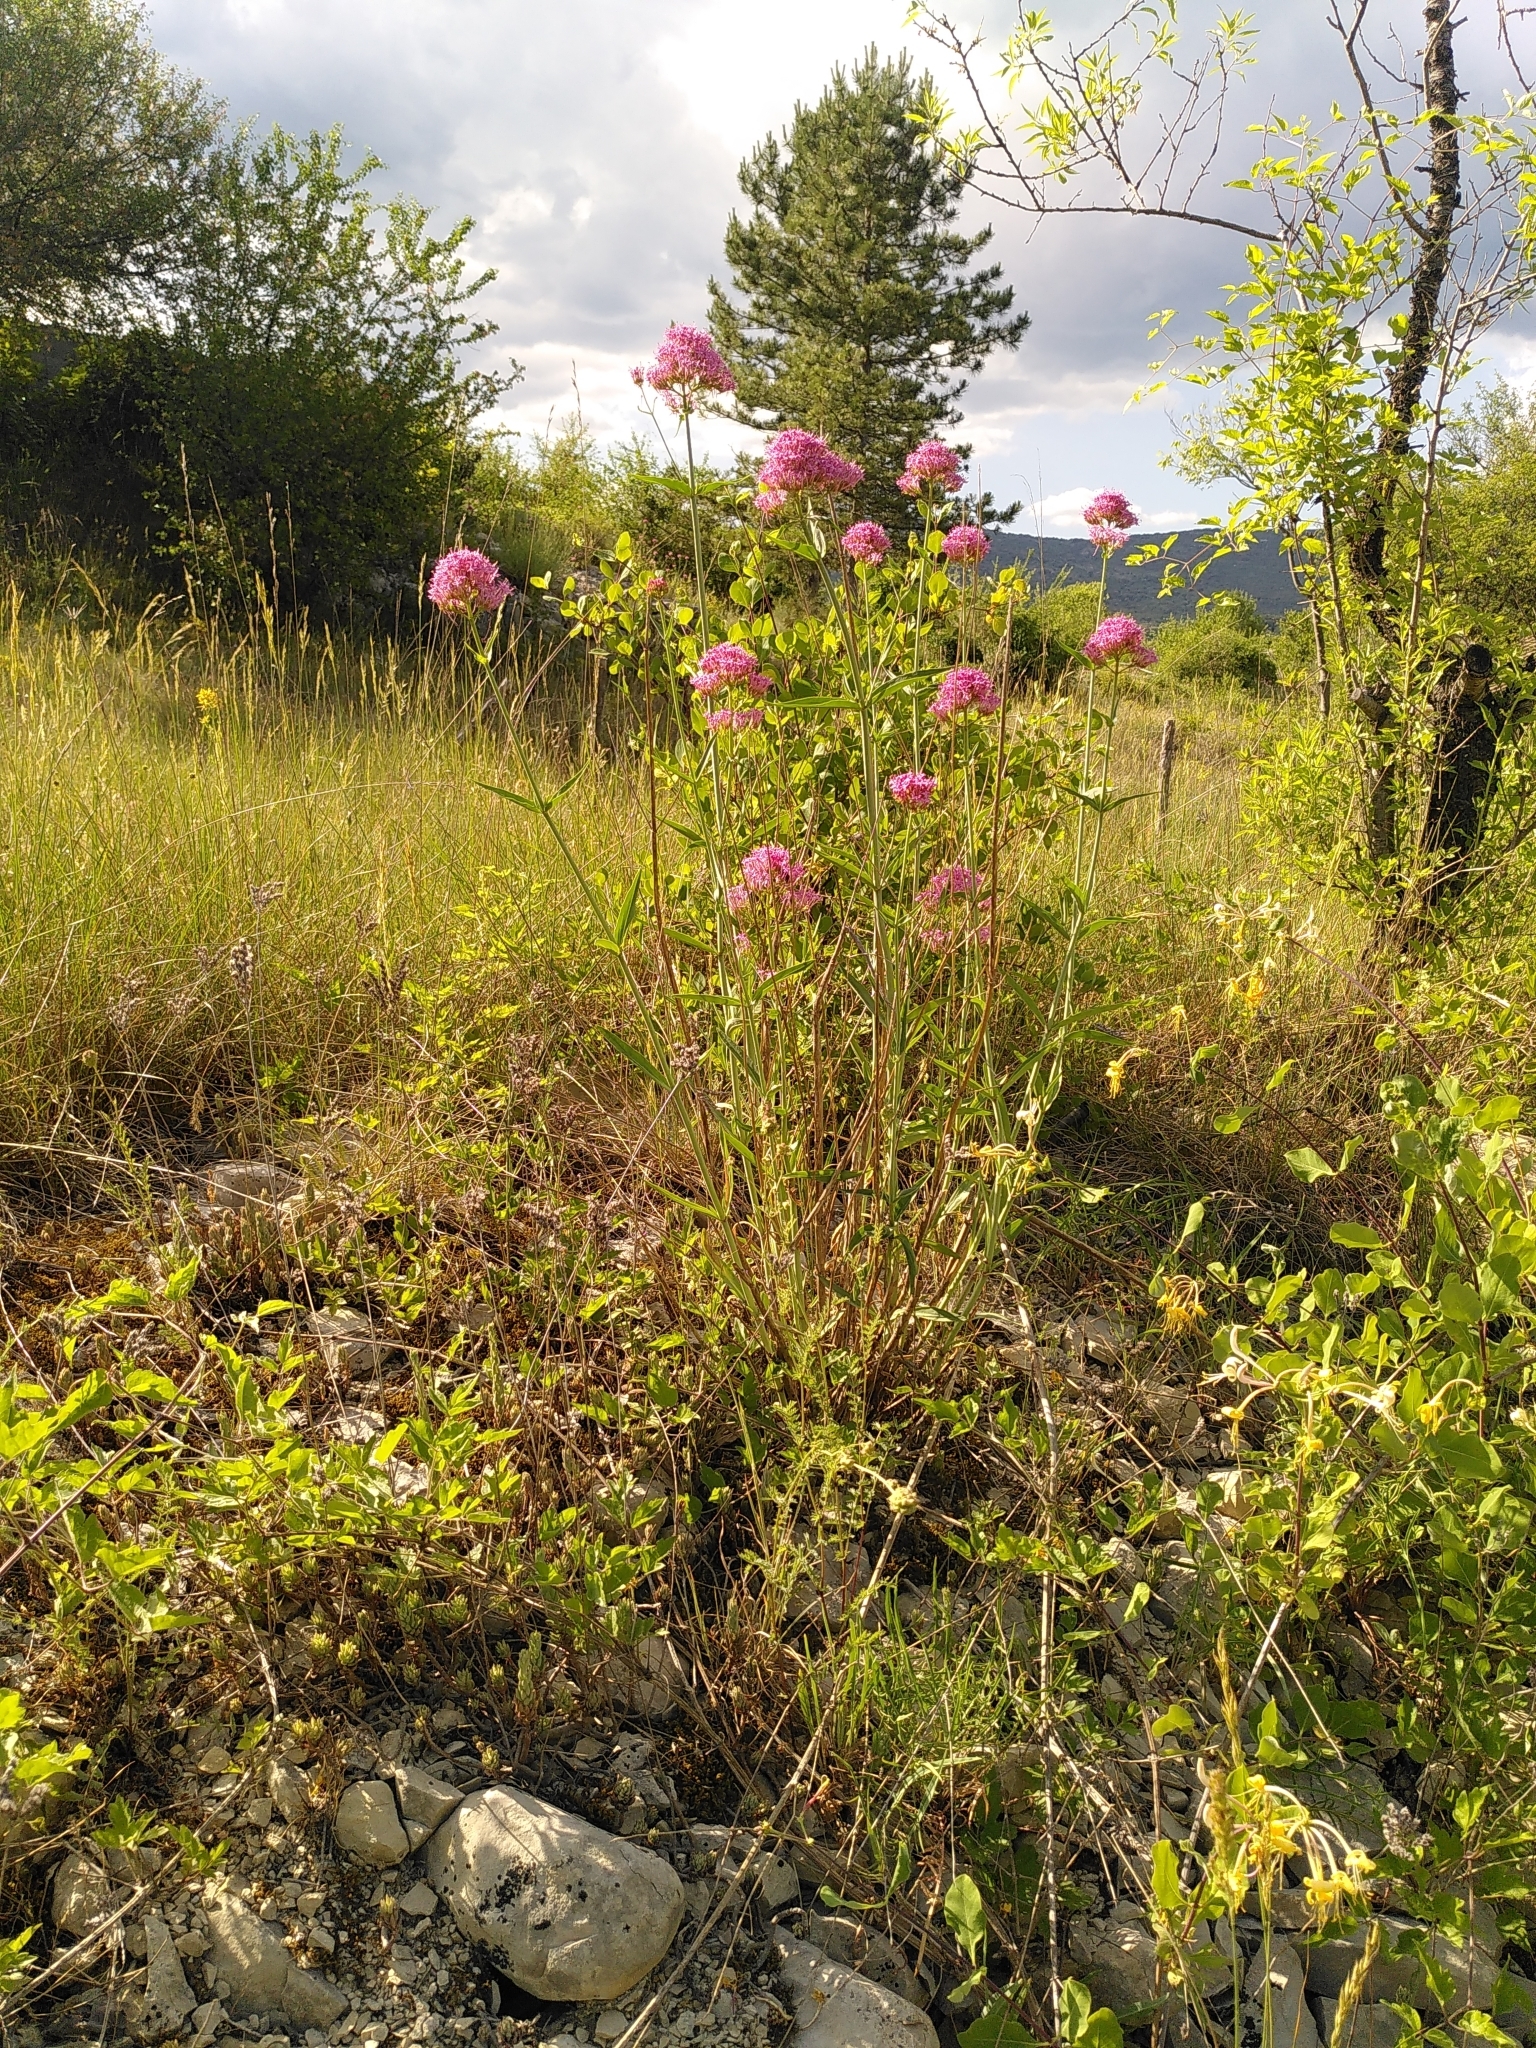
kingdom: Plantae
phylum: Tracheophyta
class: Magnoliopsida
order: Dipsacales
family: Caprifoliaceae
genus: Centranthus
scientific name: Centranthus lecoqii
